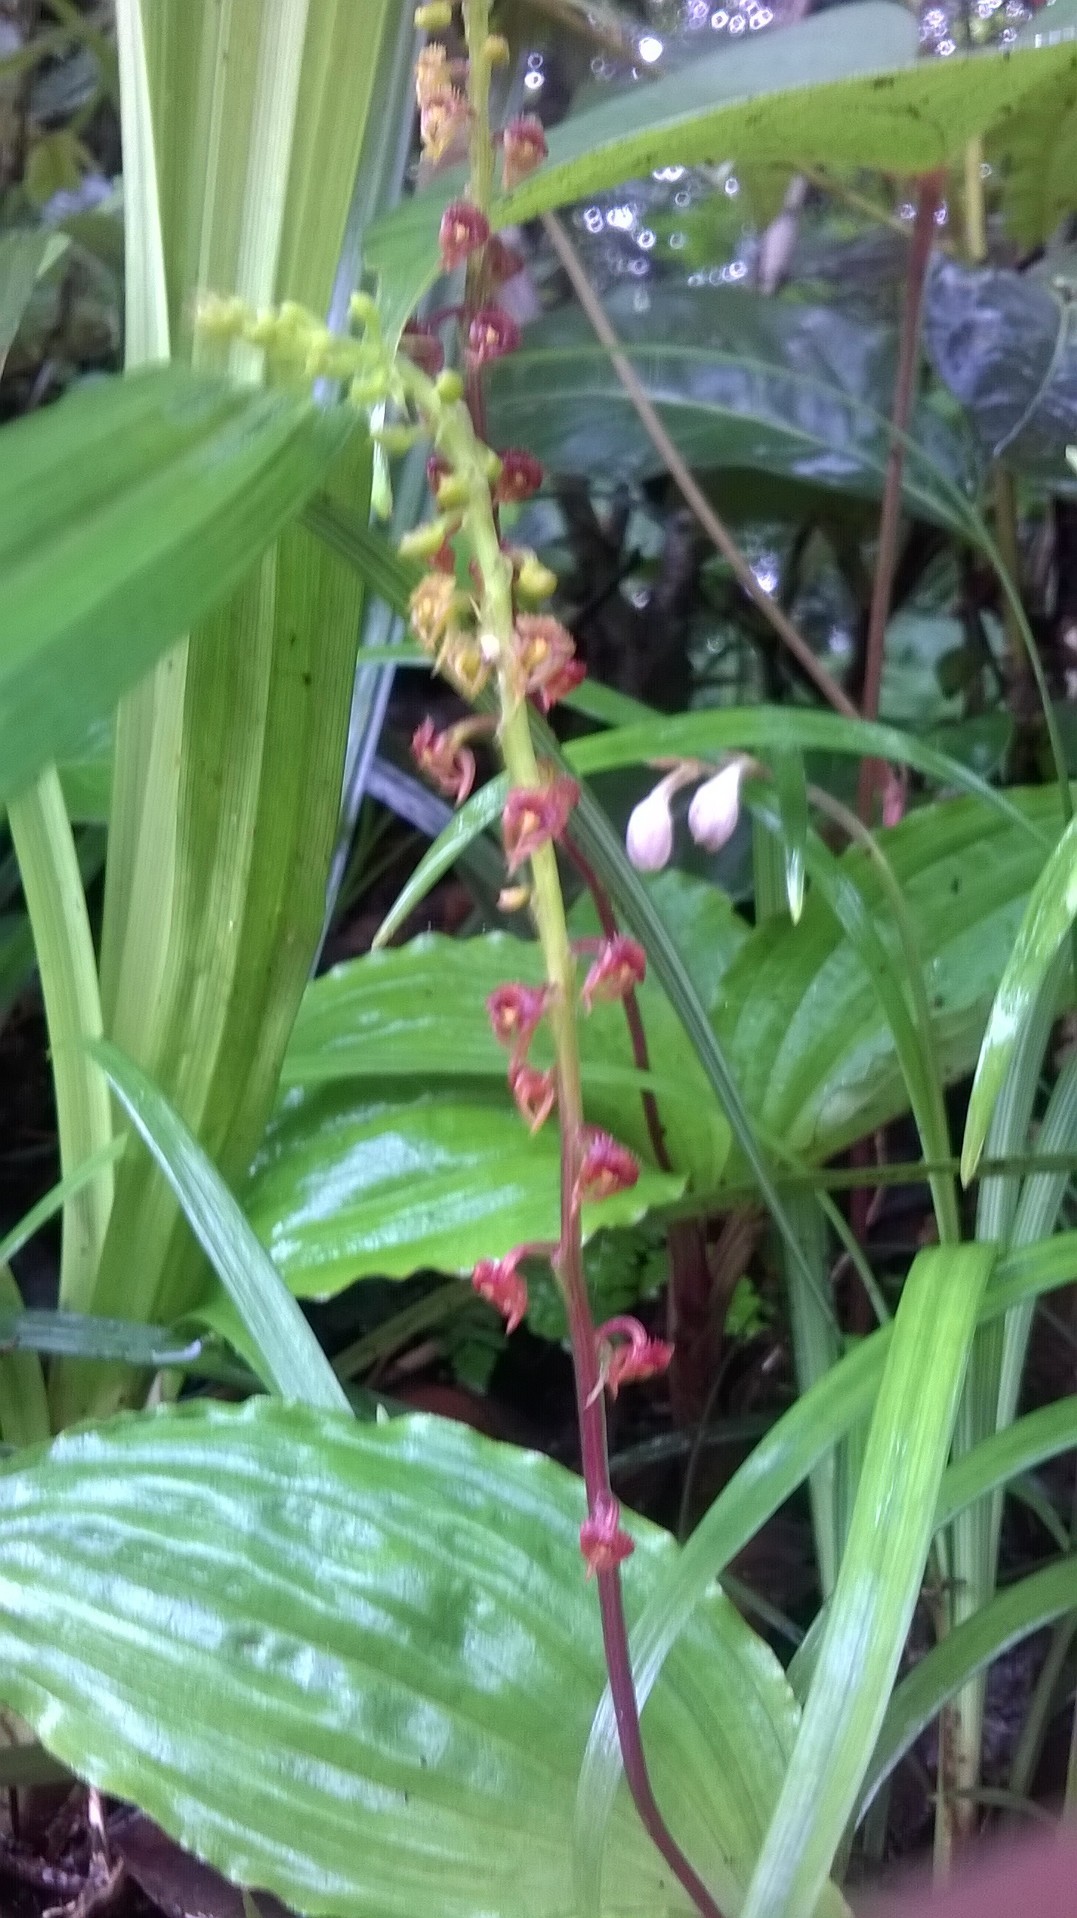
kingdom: Plantae
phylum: Tracheophyta
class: Liliopsida
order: Asparagales
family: Orchidaceae
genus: Malaxis
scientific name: Malaxis versicolor
